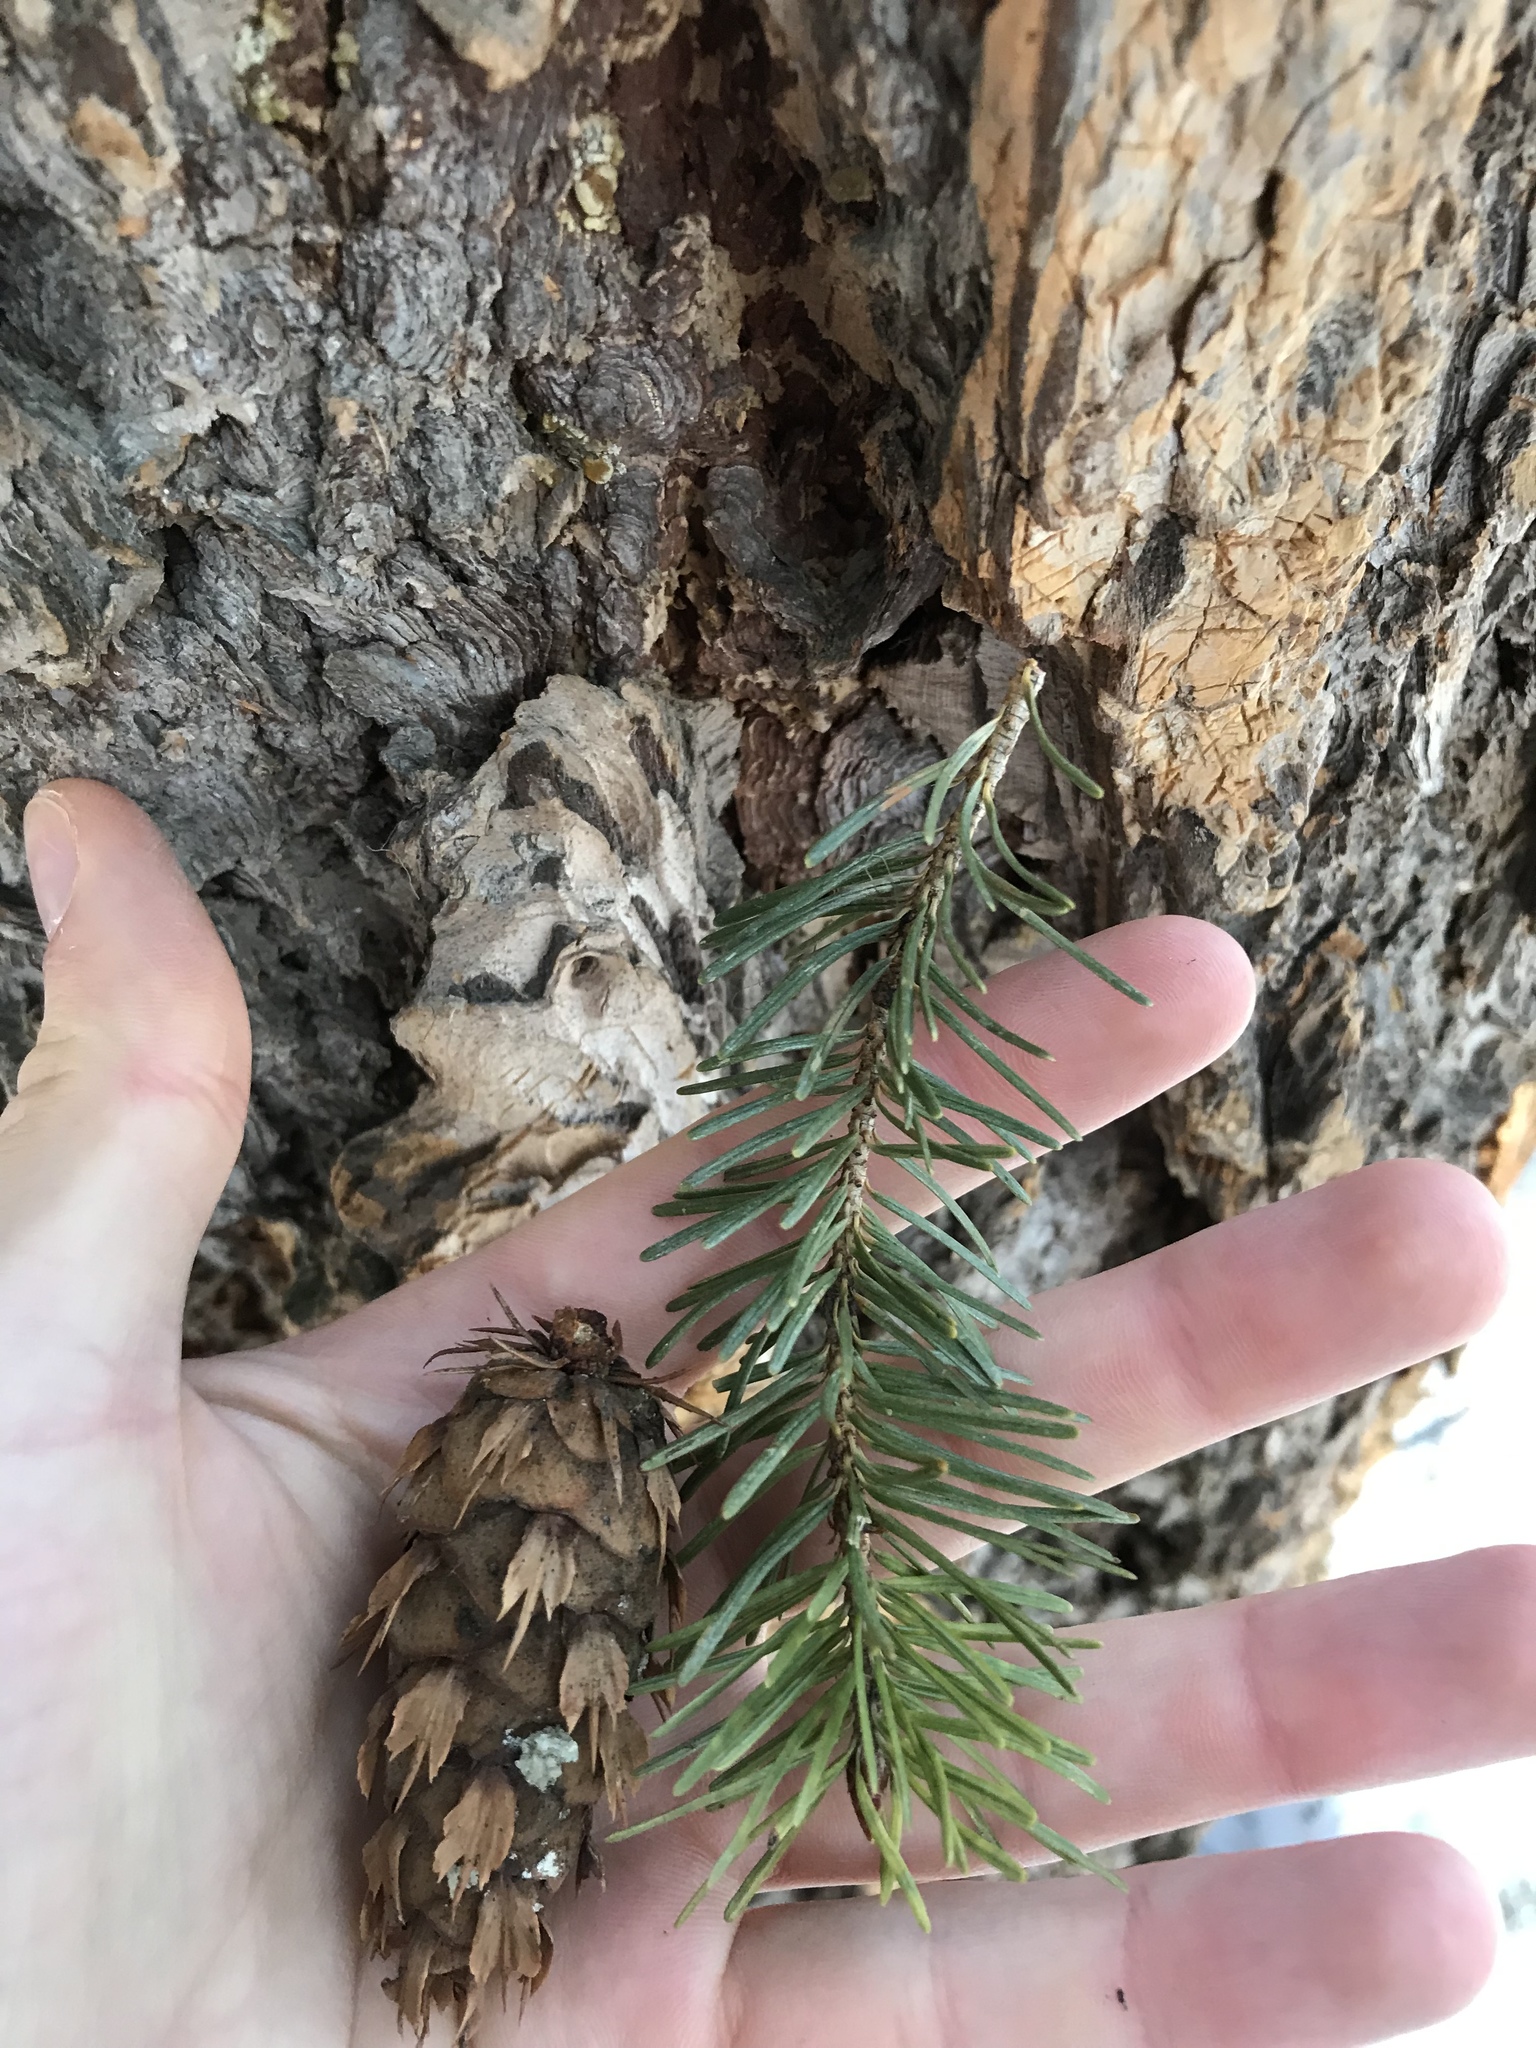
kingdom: Plantae
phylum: Tracheophyta
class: Pinopsida
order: Pinales
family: Pinaceae
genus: Pseudotsuga
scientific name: Pseudotsuga menziesii
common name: Douglas fir
